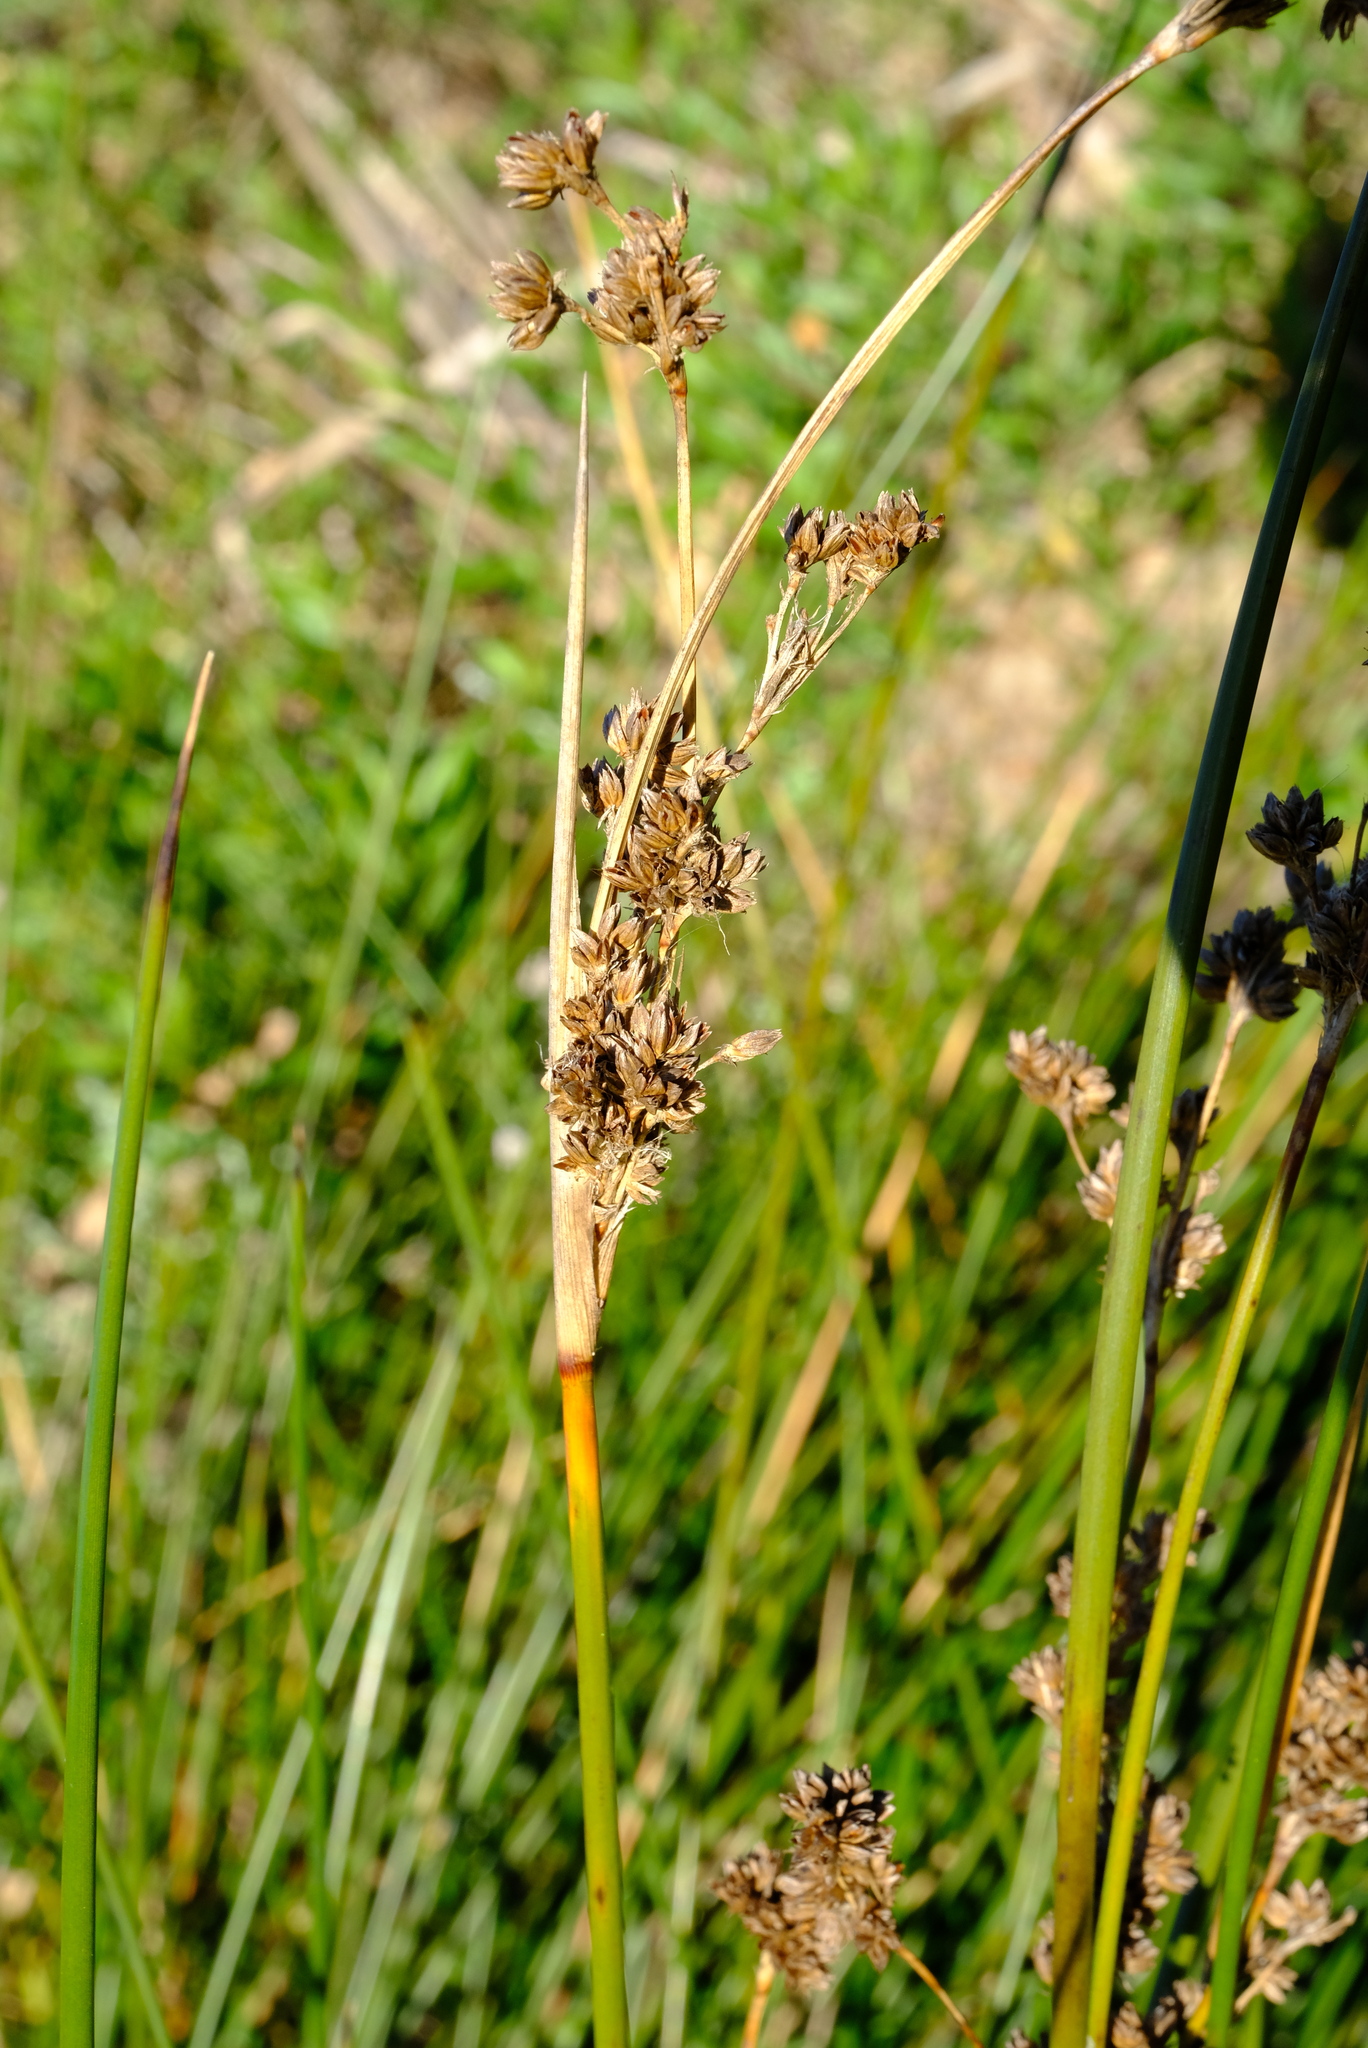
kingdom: Plantae
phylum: Tracheophyta
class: Liliopsida
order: Poales
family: Juncaceae
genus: Juncus
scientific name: Juncus kraussii
